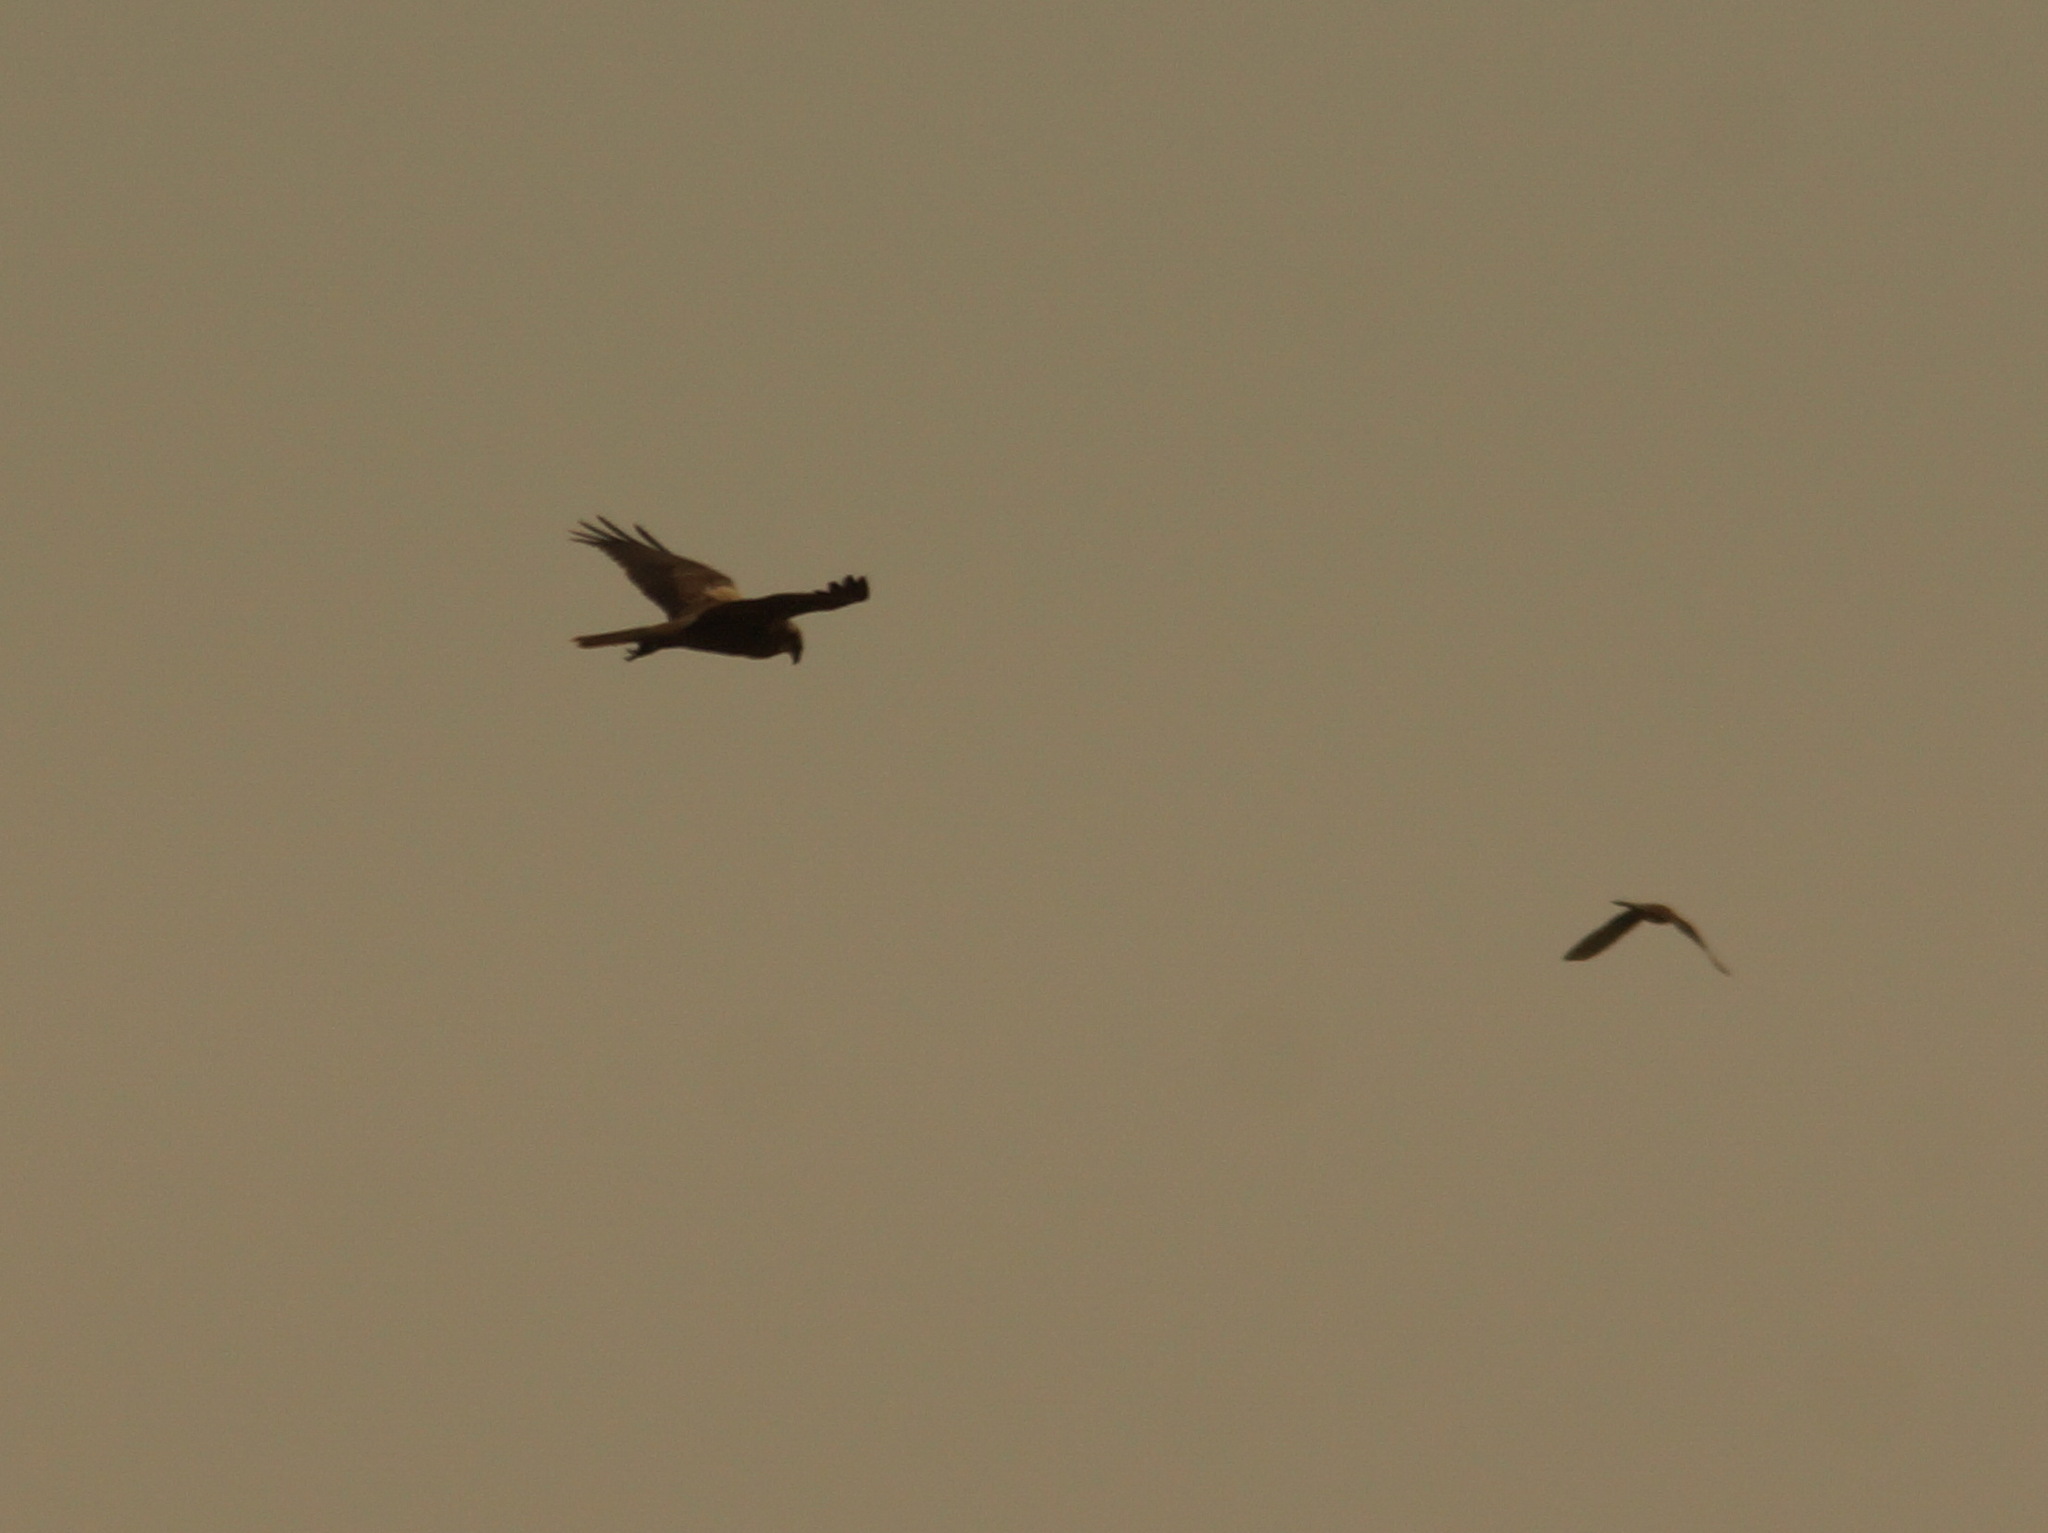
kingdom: Animalia
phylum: Chordata
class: Aves
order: Accipitriformes
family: Accipitridae
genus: Circus
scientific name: Circus aeruginosus
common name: Western marsh harrier
